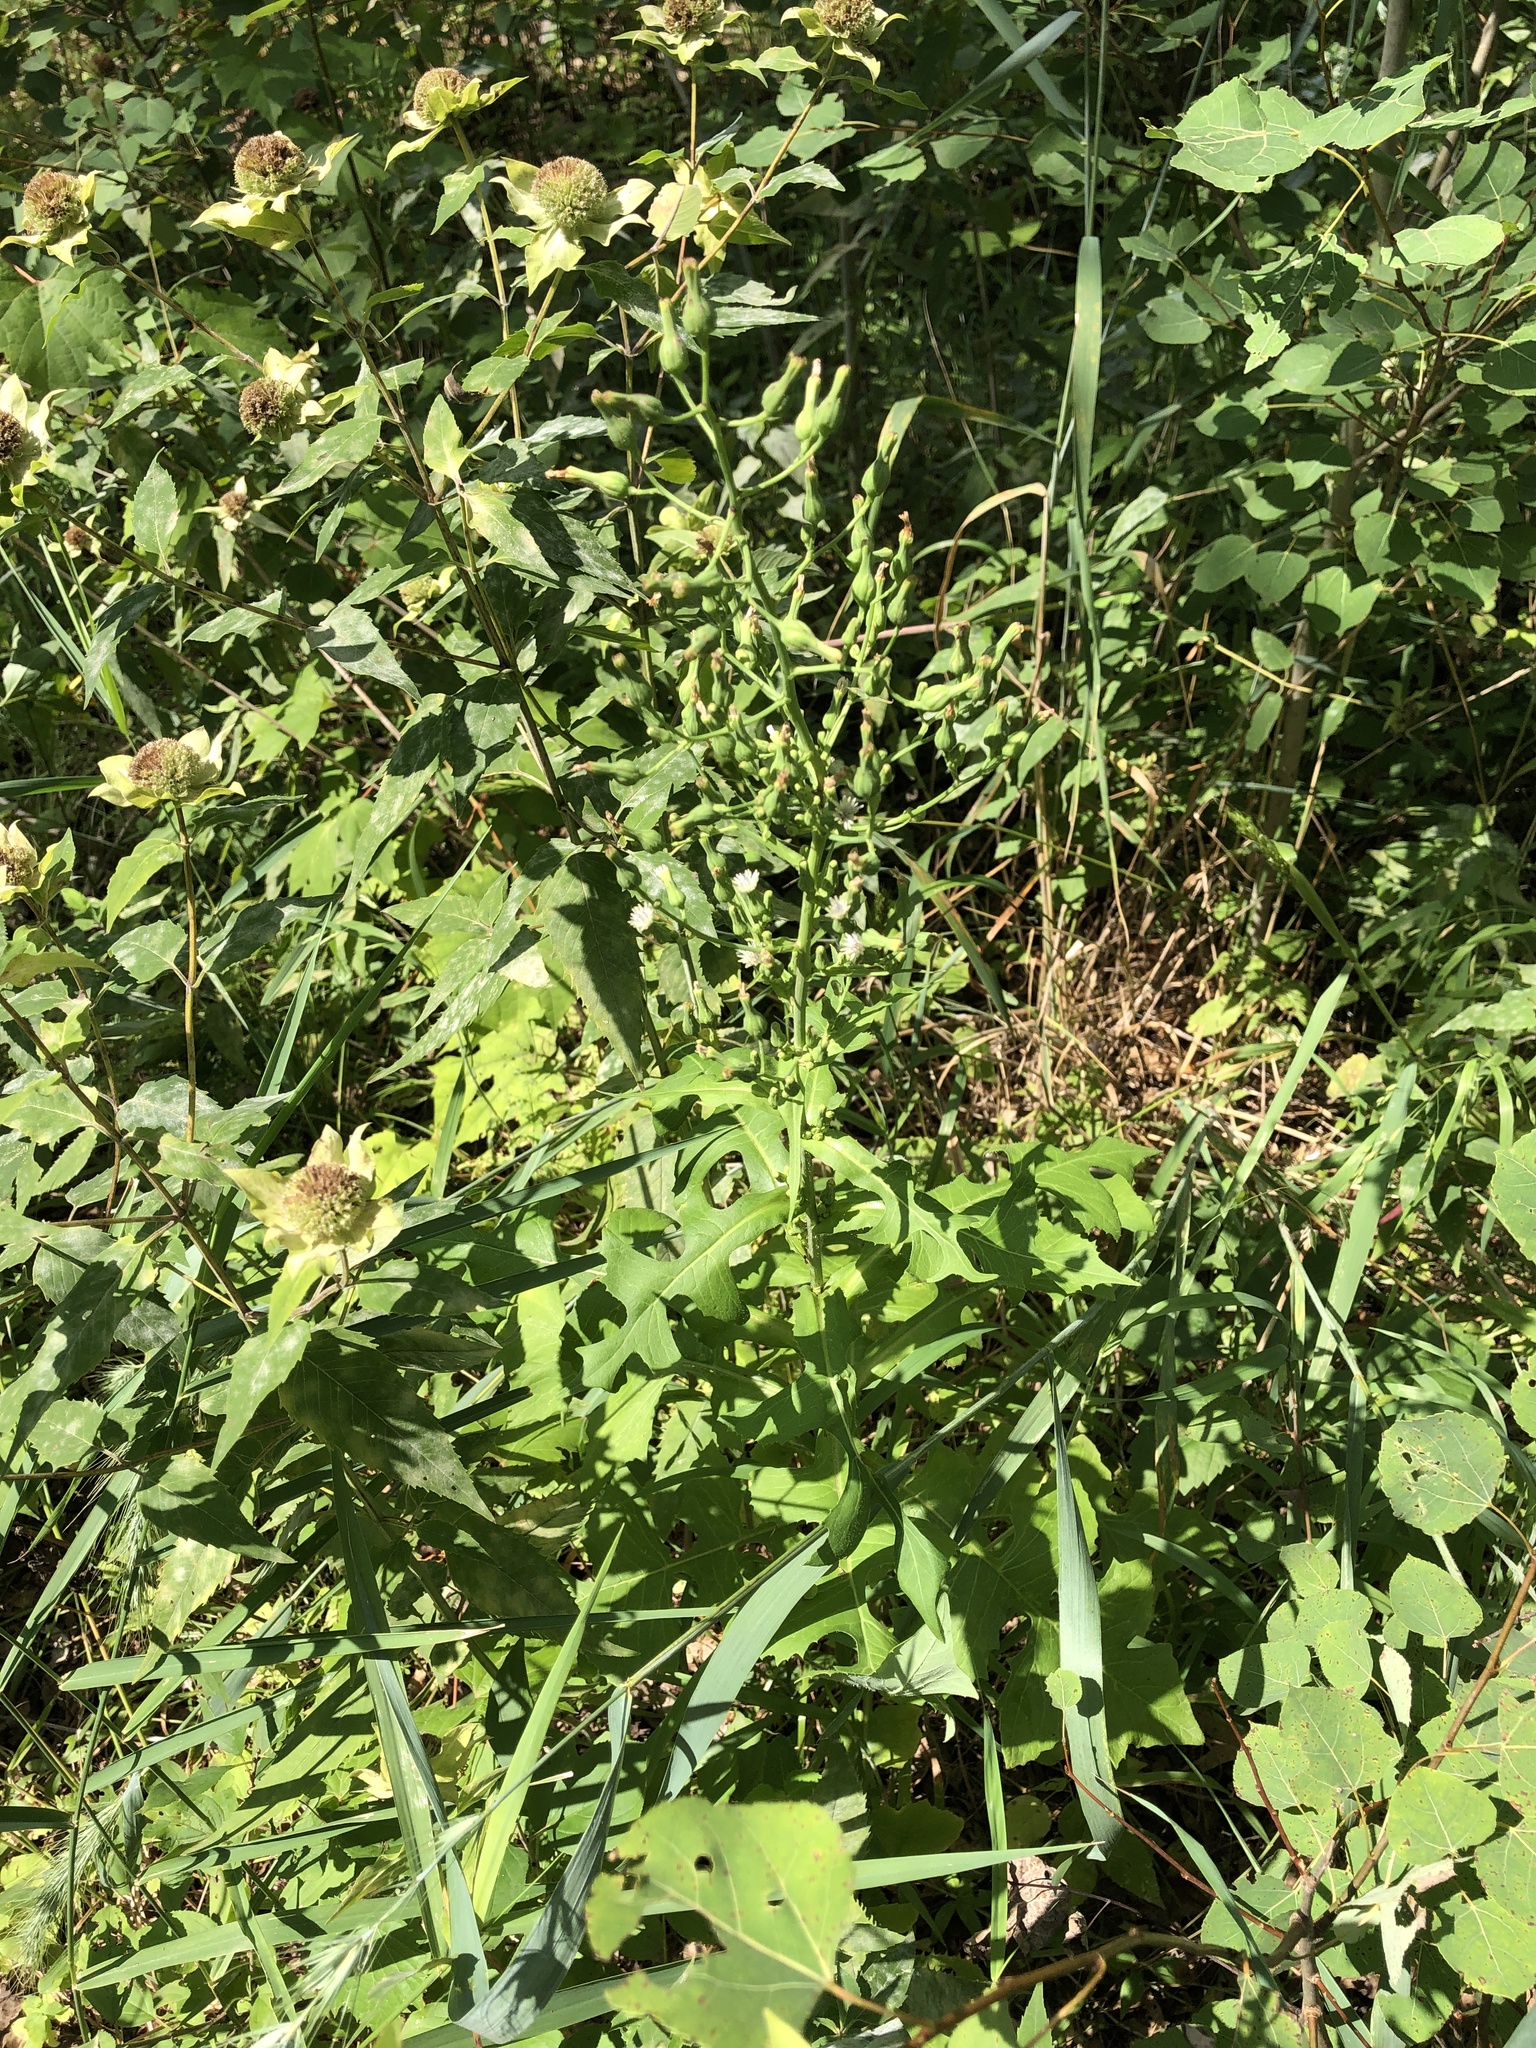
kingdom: Plantae
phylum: Tracheophyta
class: Magnoliopsida
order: Asterales
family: Asteraceae
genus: Lactuca
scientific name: Lactuca biennis
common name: Blue wood lettuce
